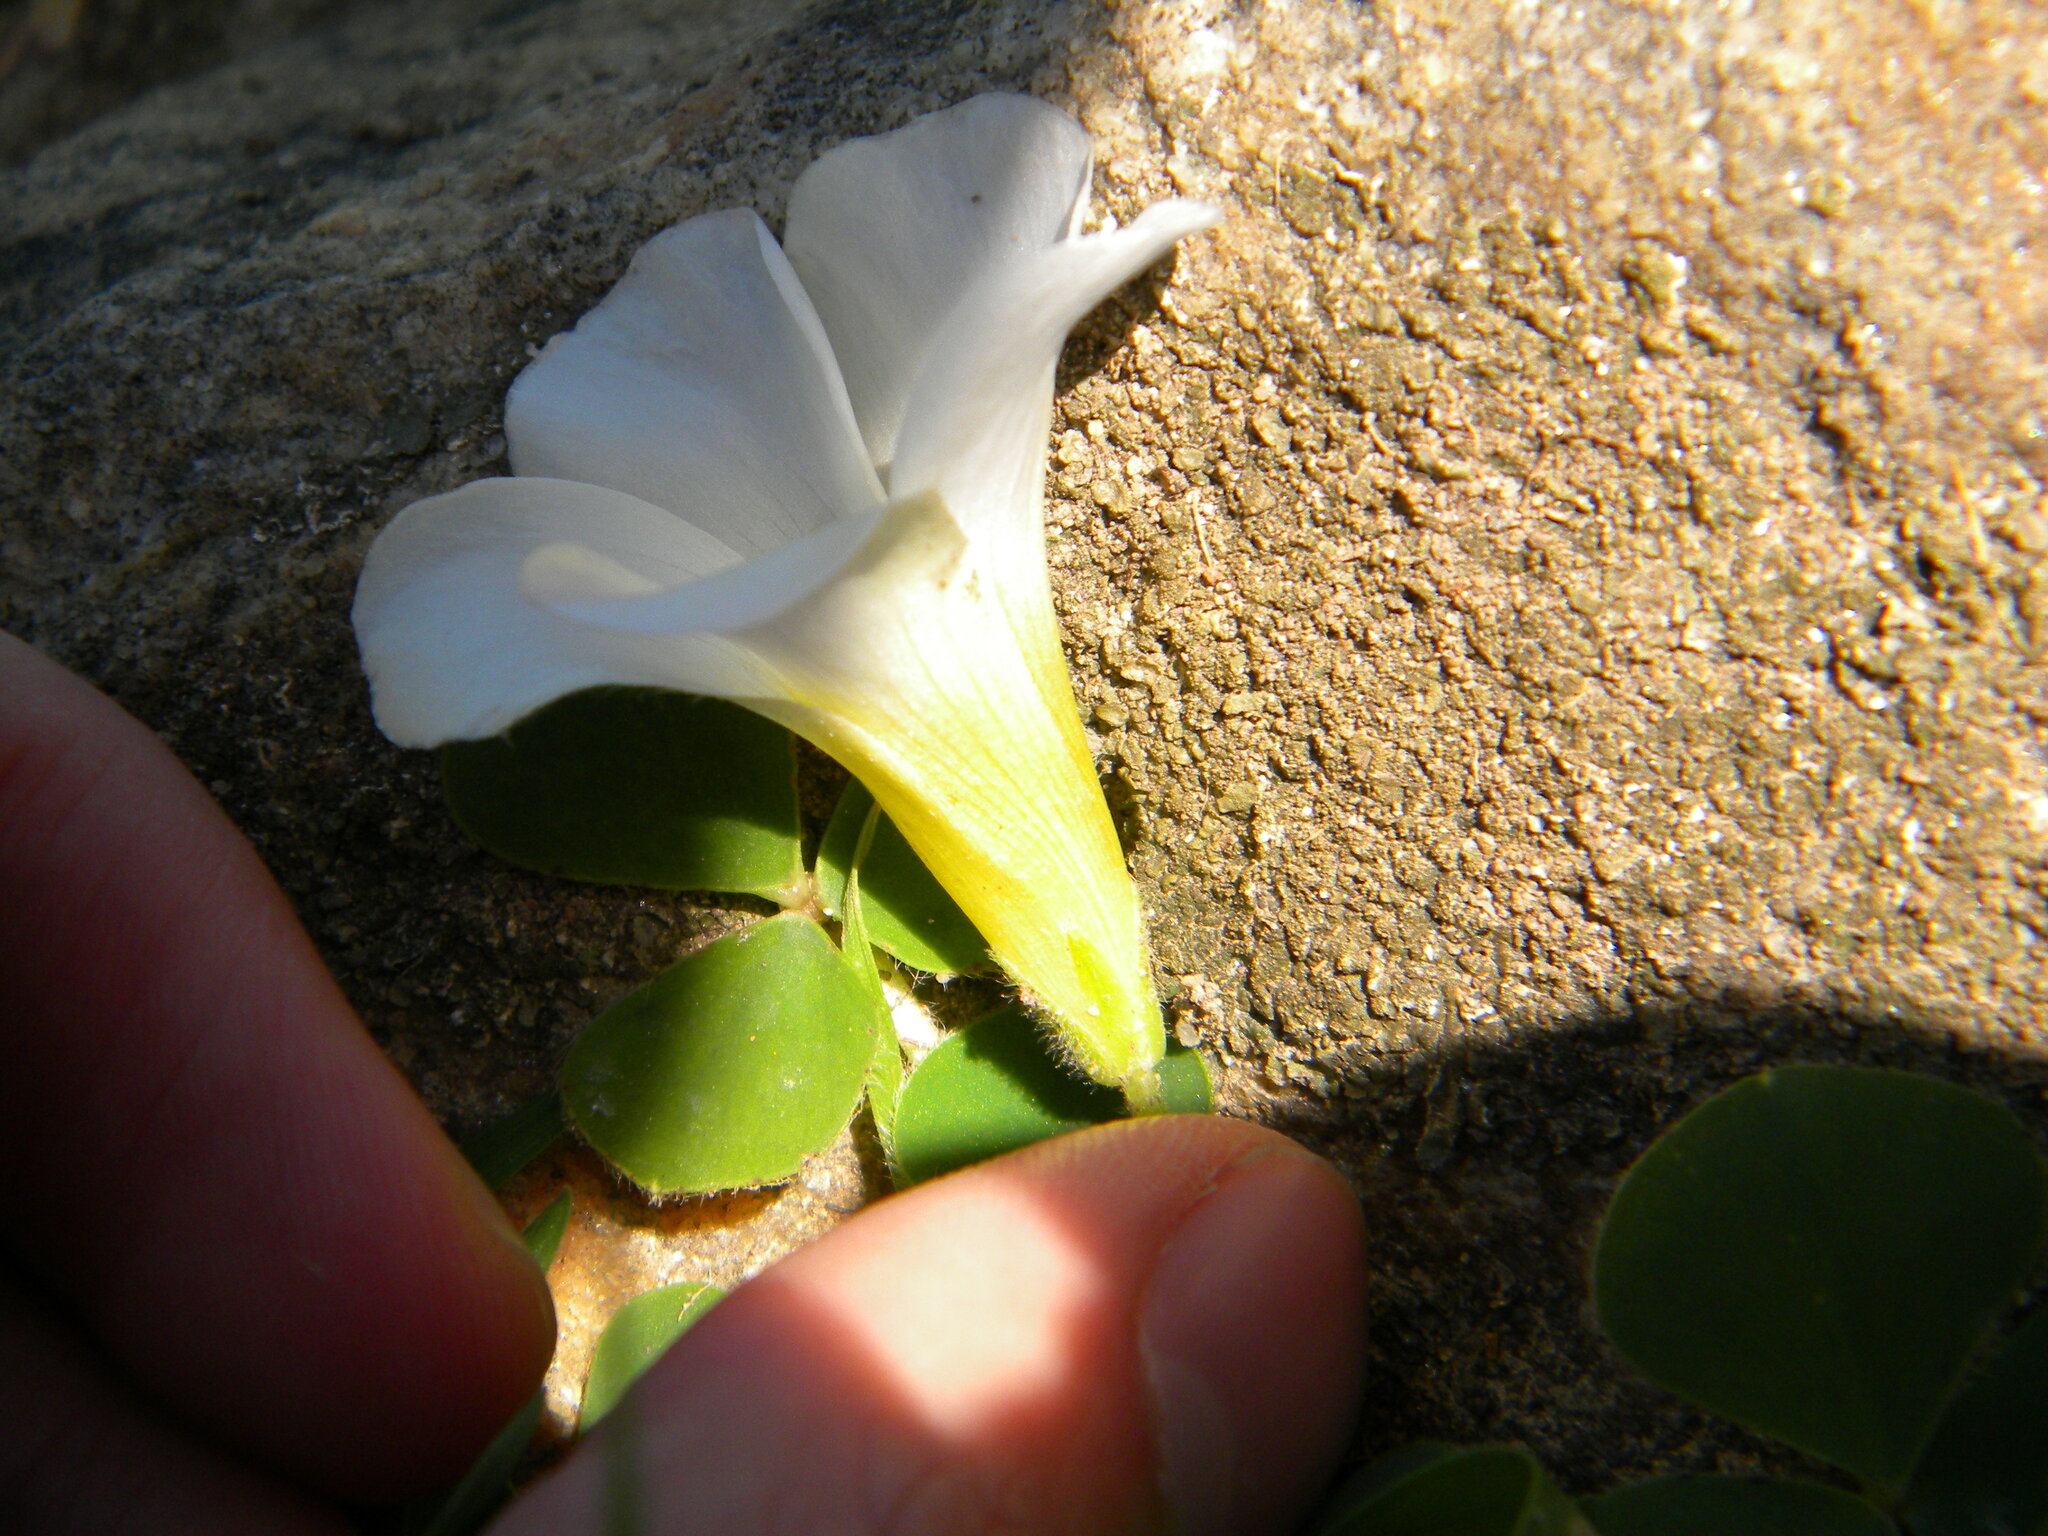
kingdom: Plantae
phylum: Tracheophyta
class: Magnoliopsida
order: Oxalidales
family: Oxalidaceae
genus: Oxalis
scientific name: Oxalis purpurea
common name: Purple woodsorrel
